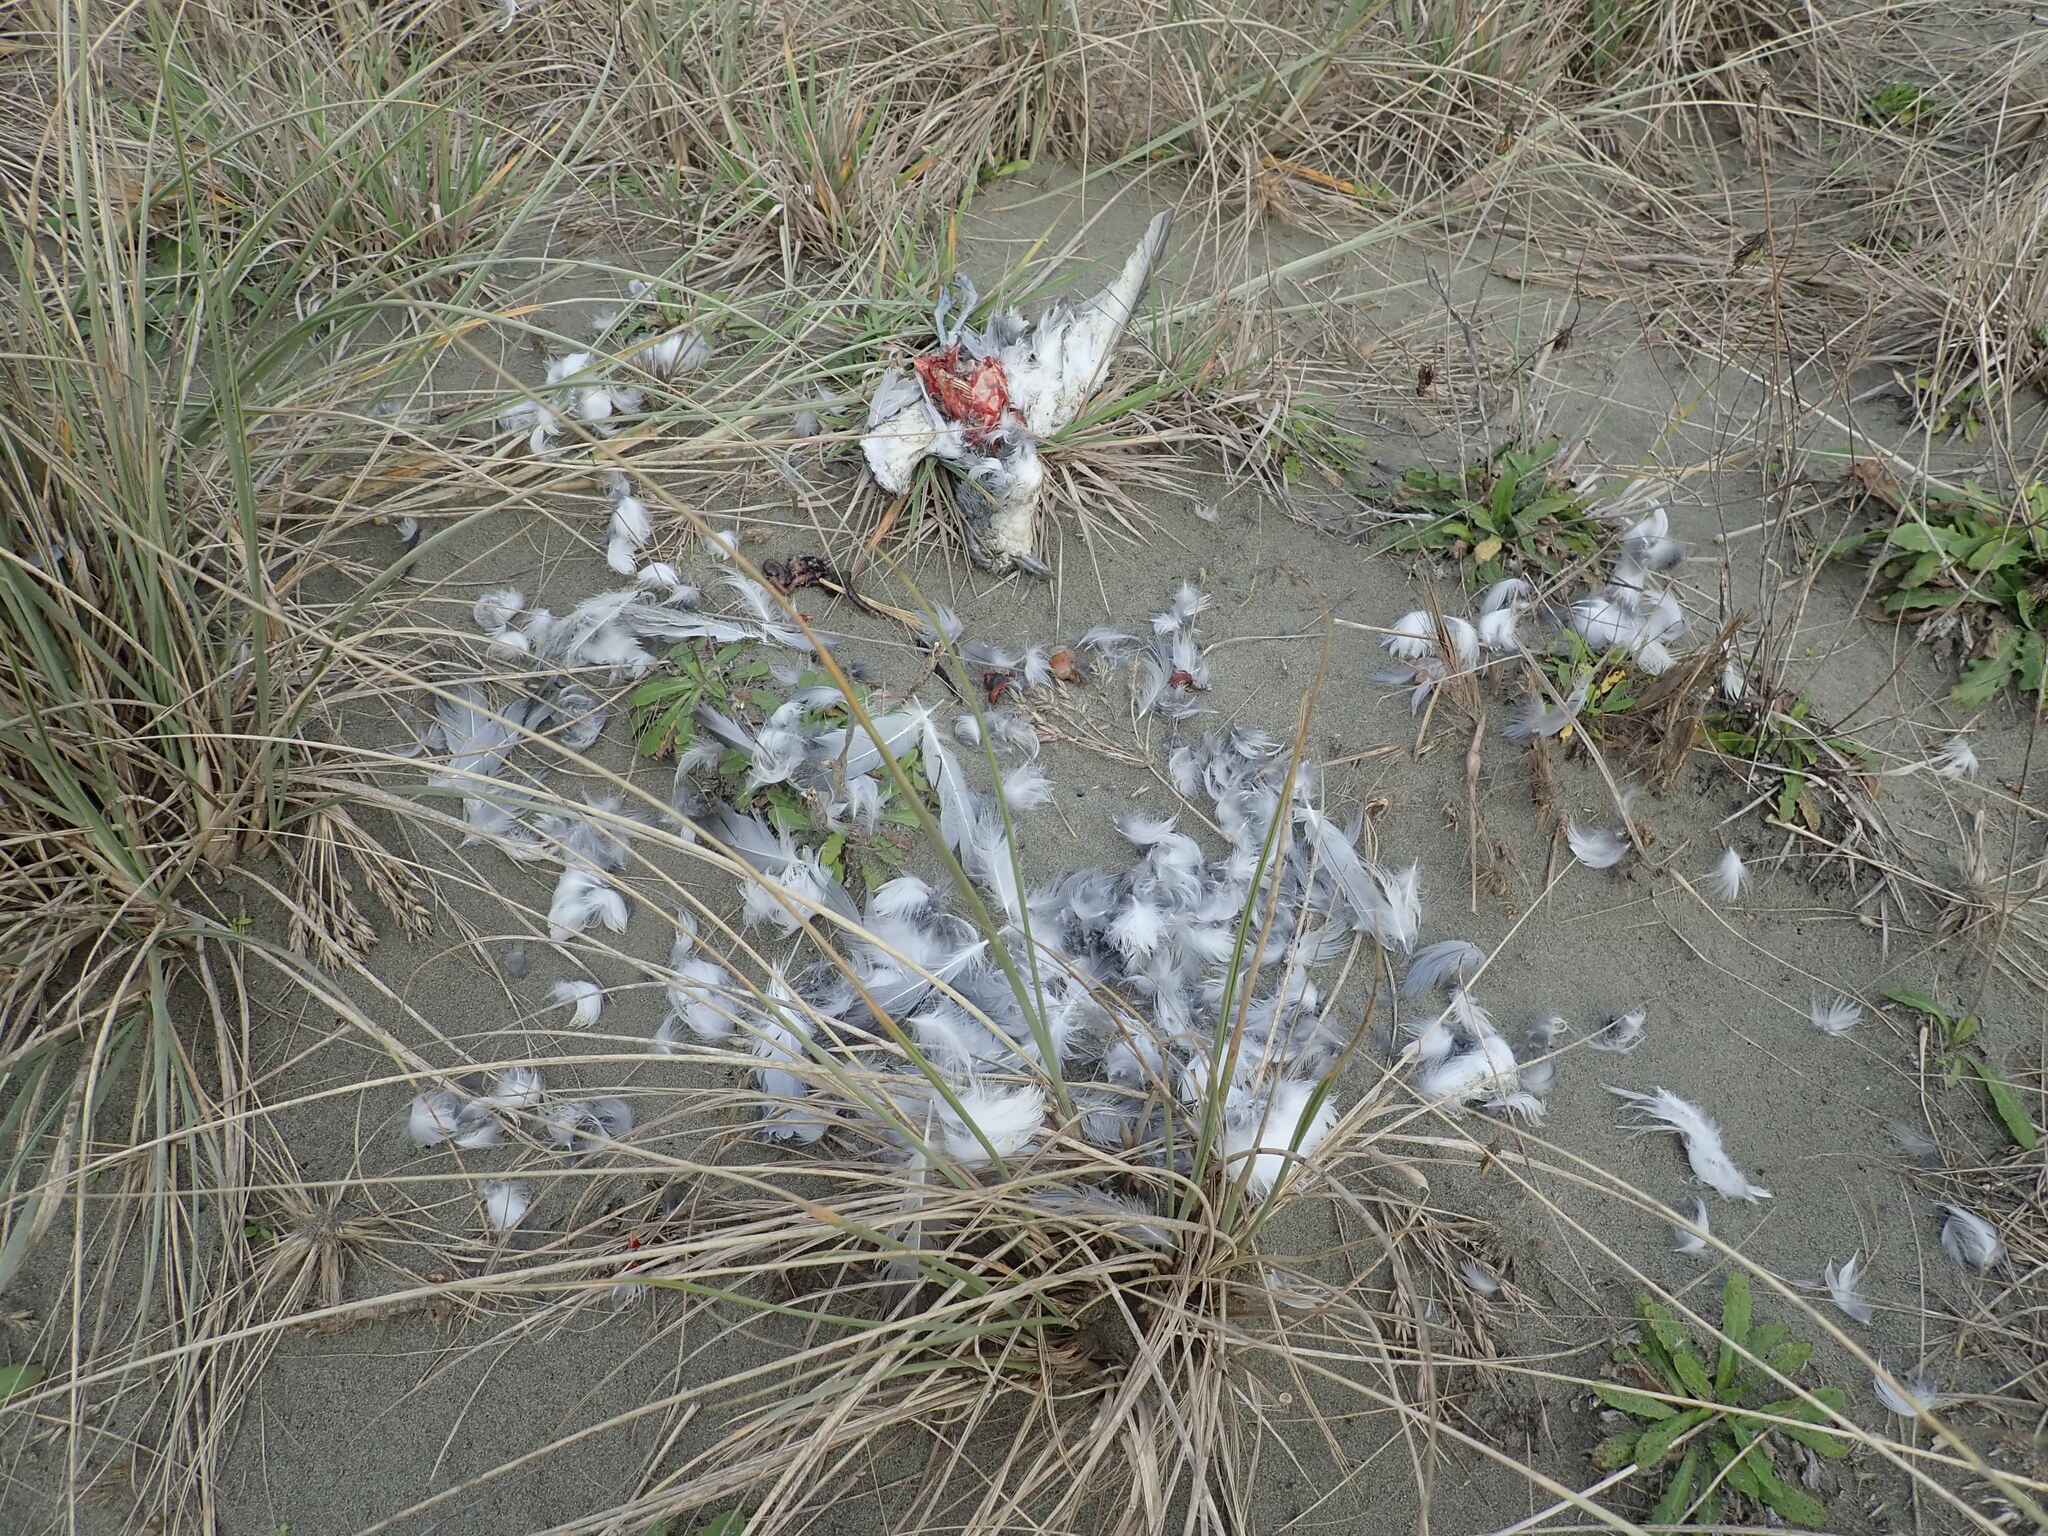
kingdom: Animalia
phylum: Chordata
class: Aves
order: Procellariiformes
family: Procellariidae
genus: Pachyptila
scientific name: Pachyptila turtur
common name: Fairy prion
